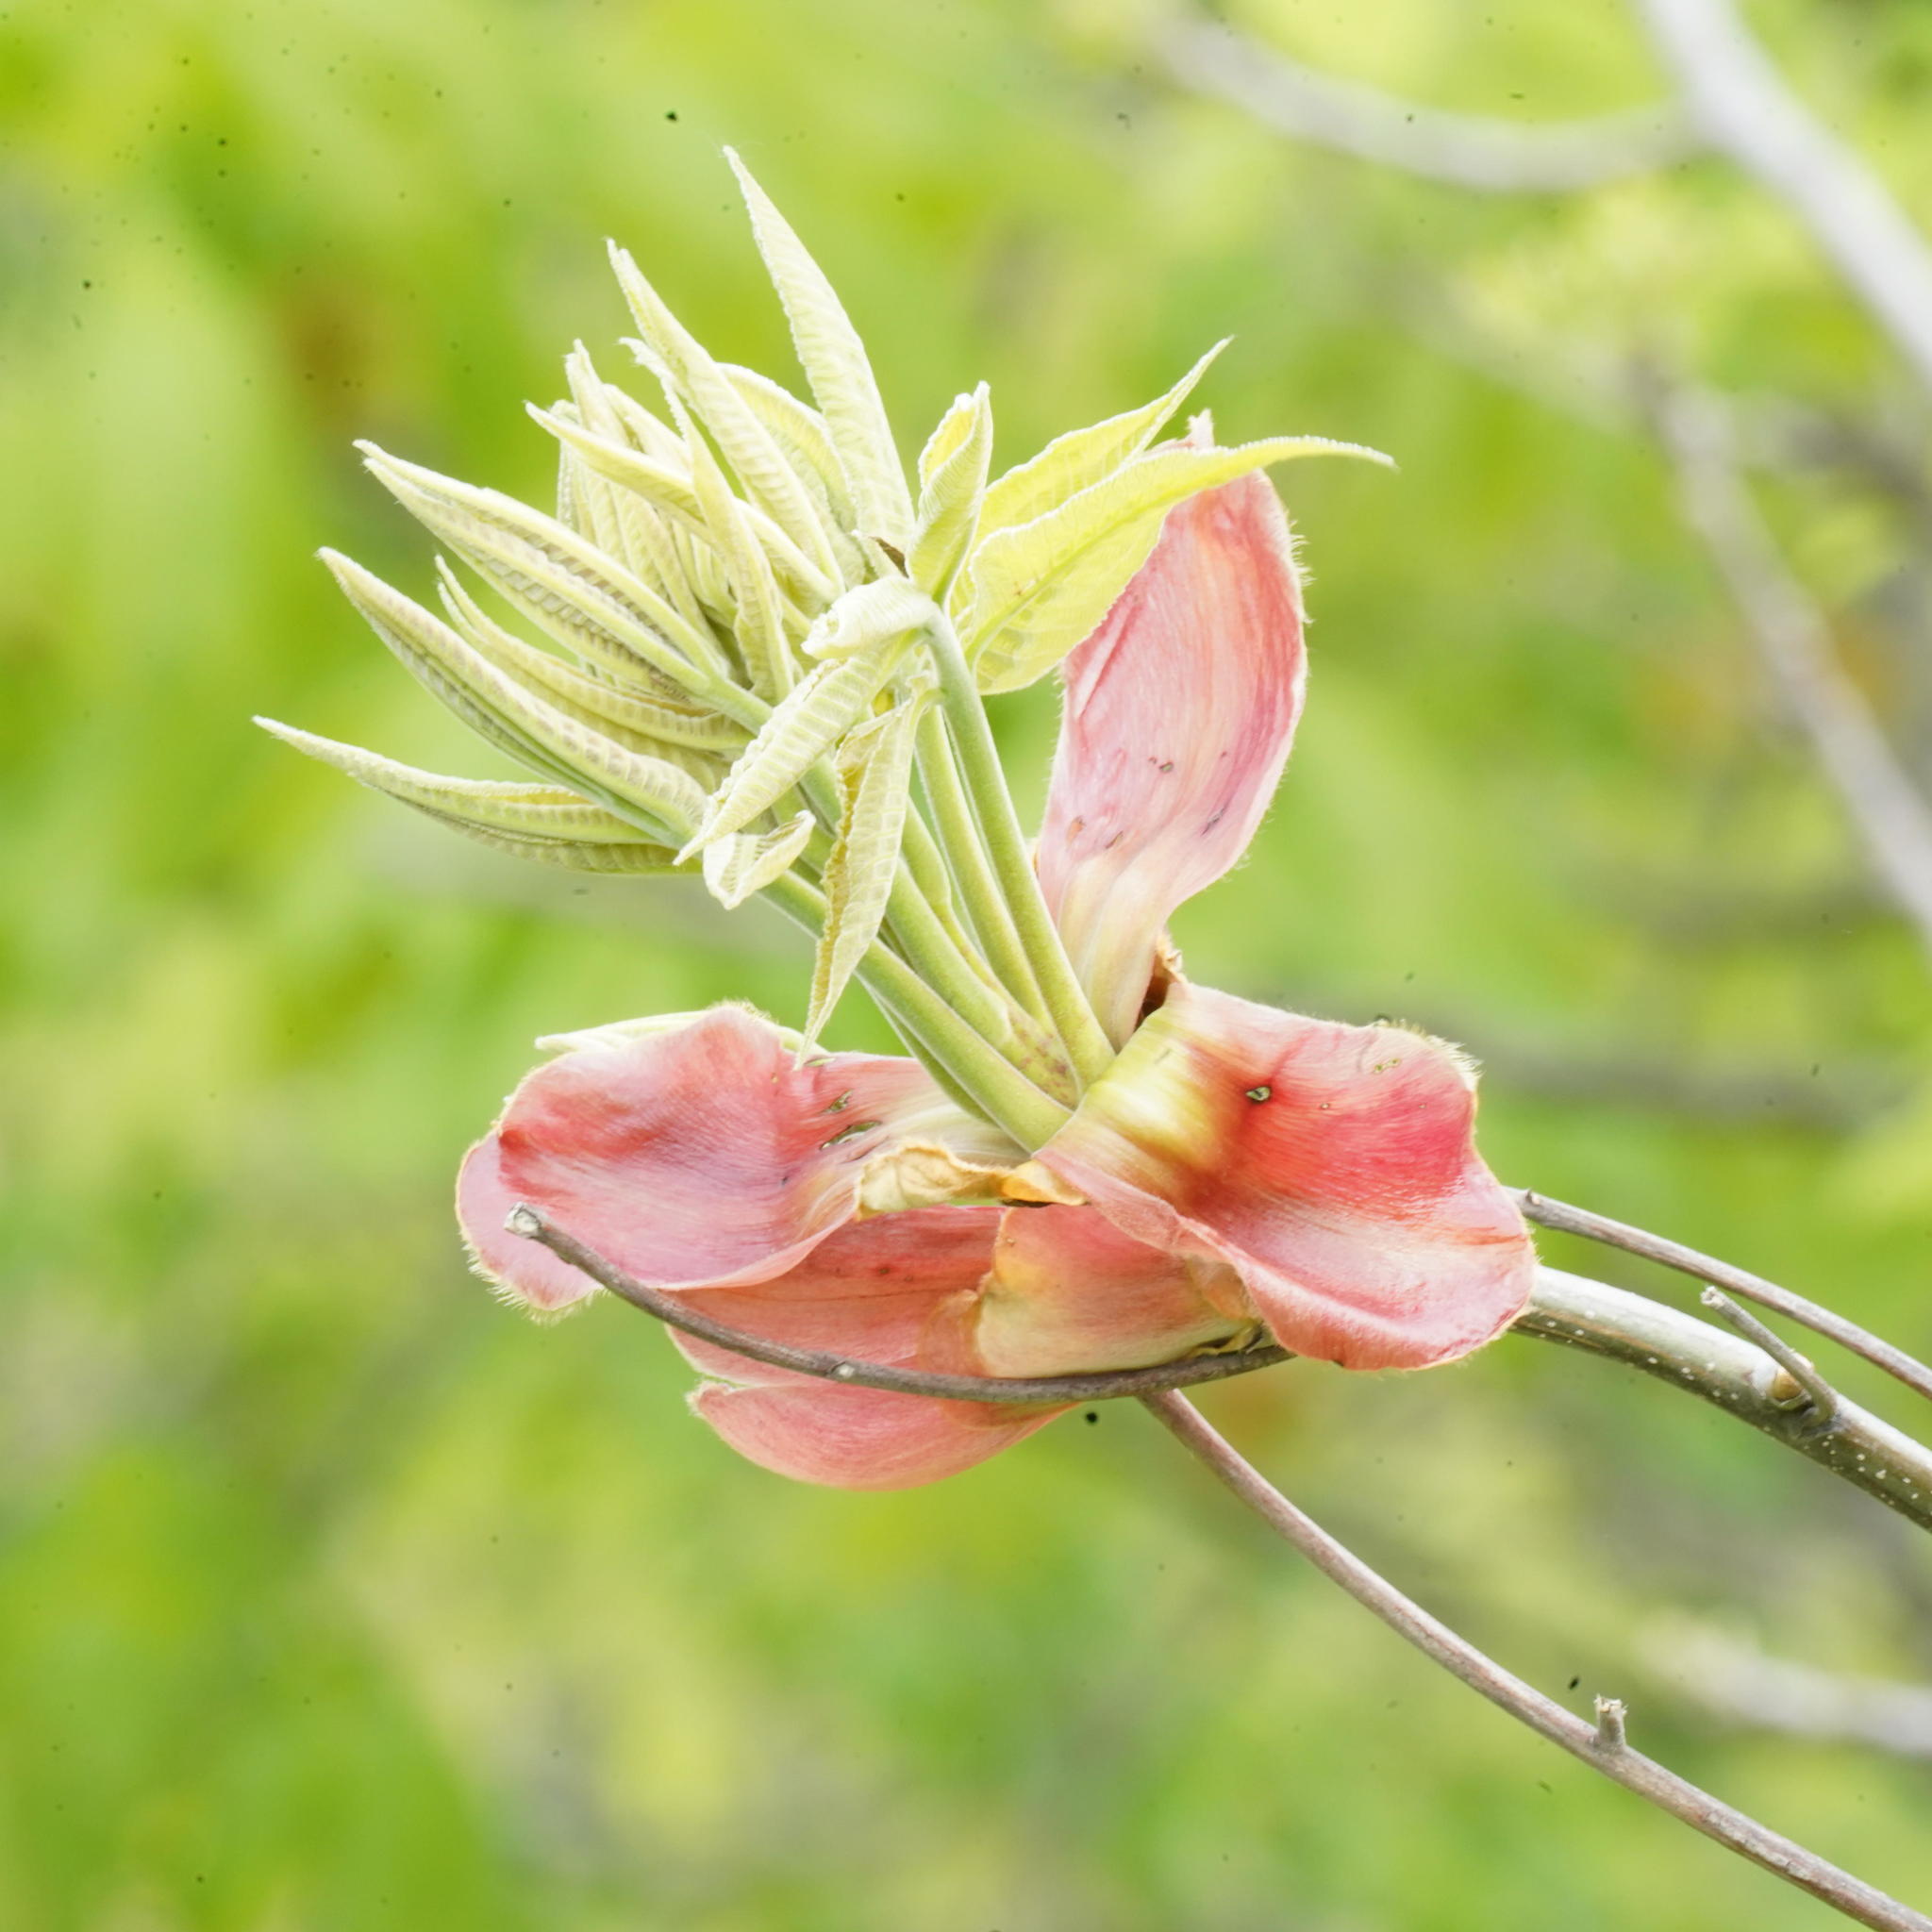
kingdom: Plantae
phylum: Tracheophyta
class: Magnoliopsida
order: Fagales
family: Juglandaceae
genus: Carya
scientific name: Carya ovata
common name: Shagbark hickory
